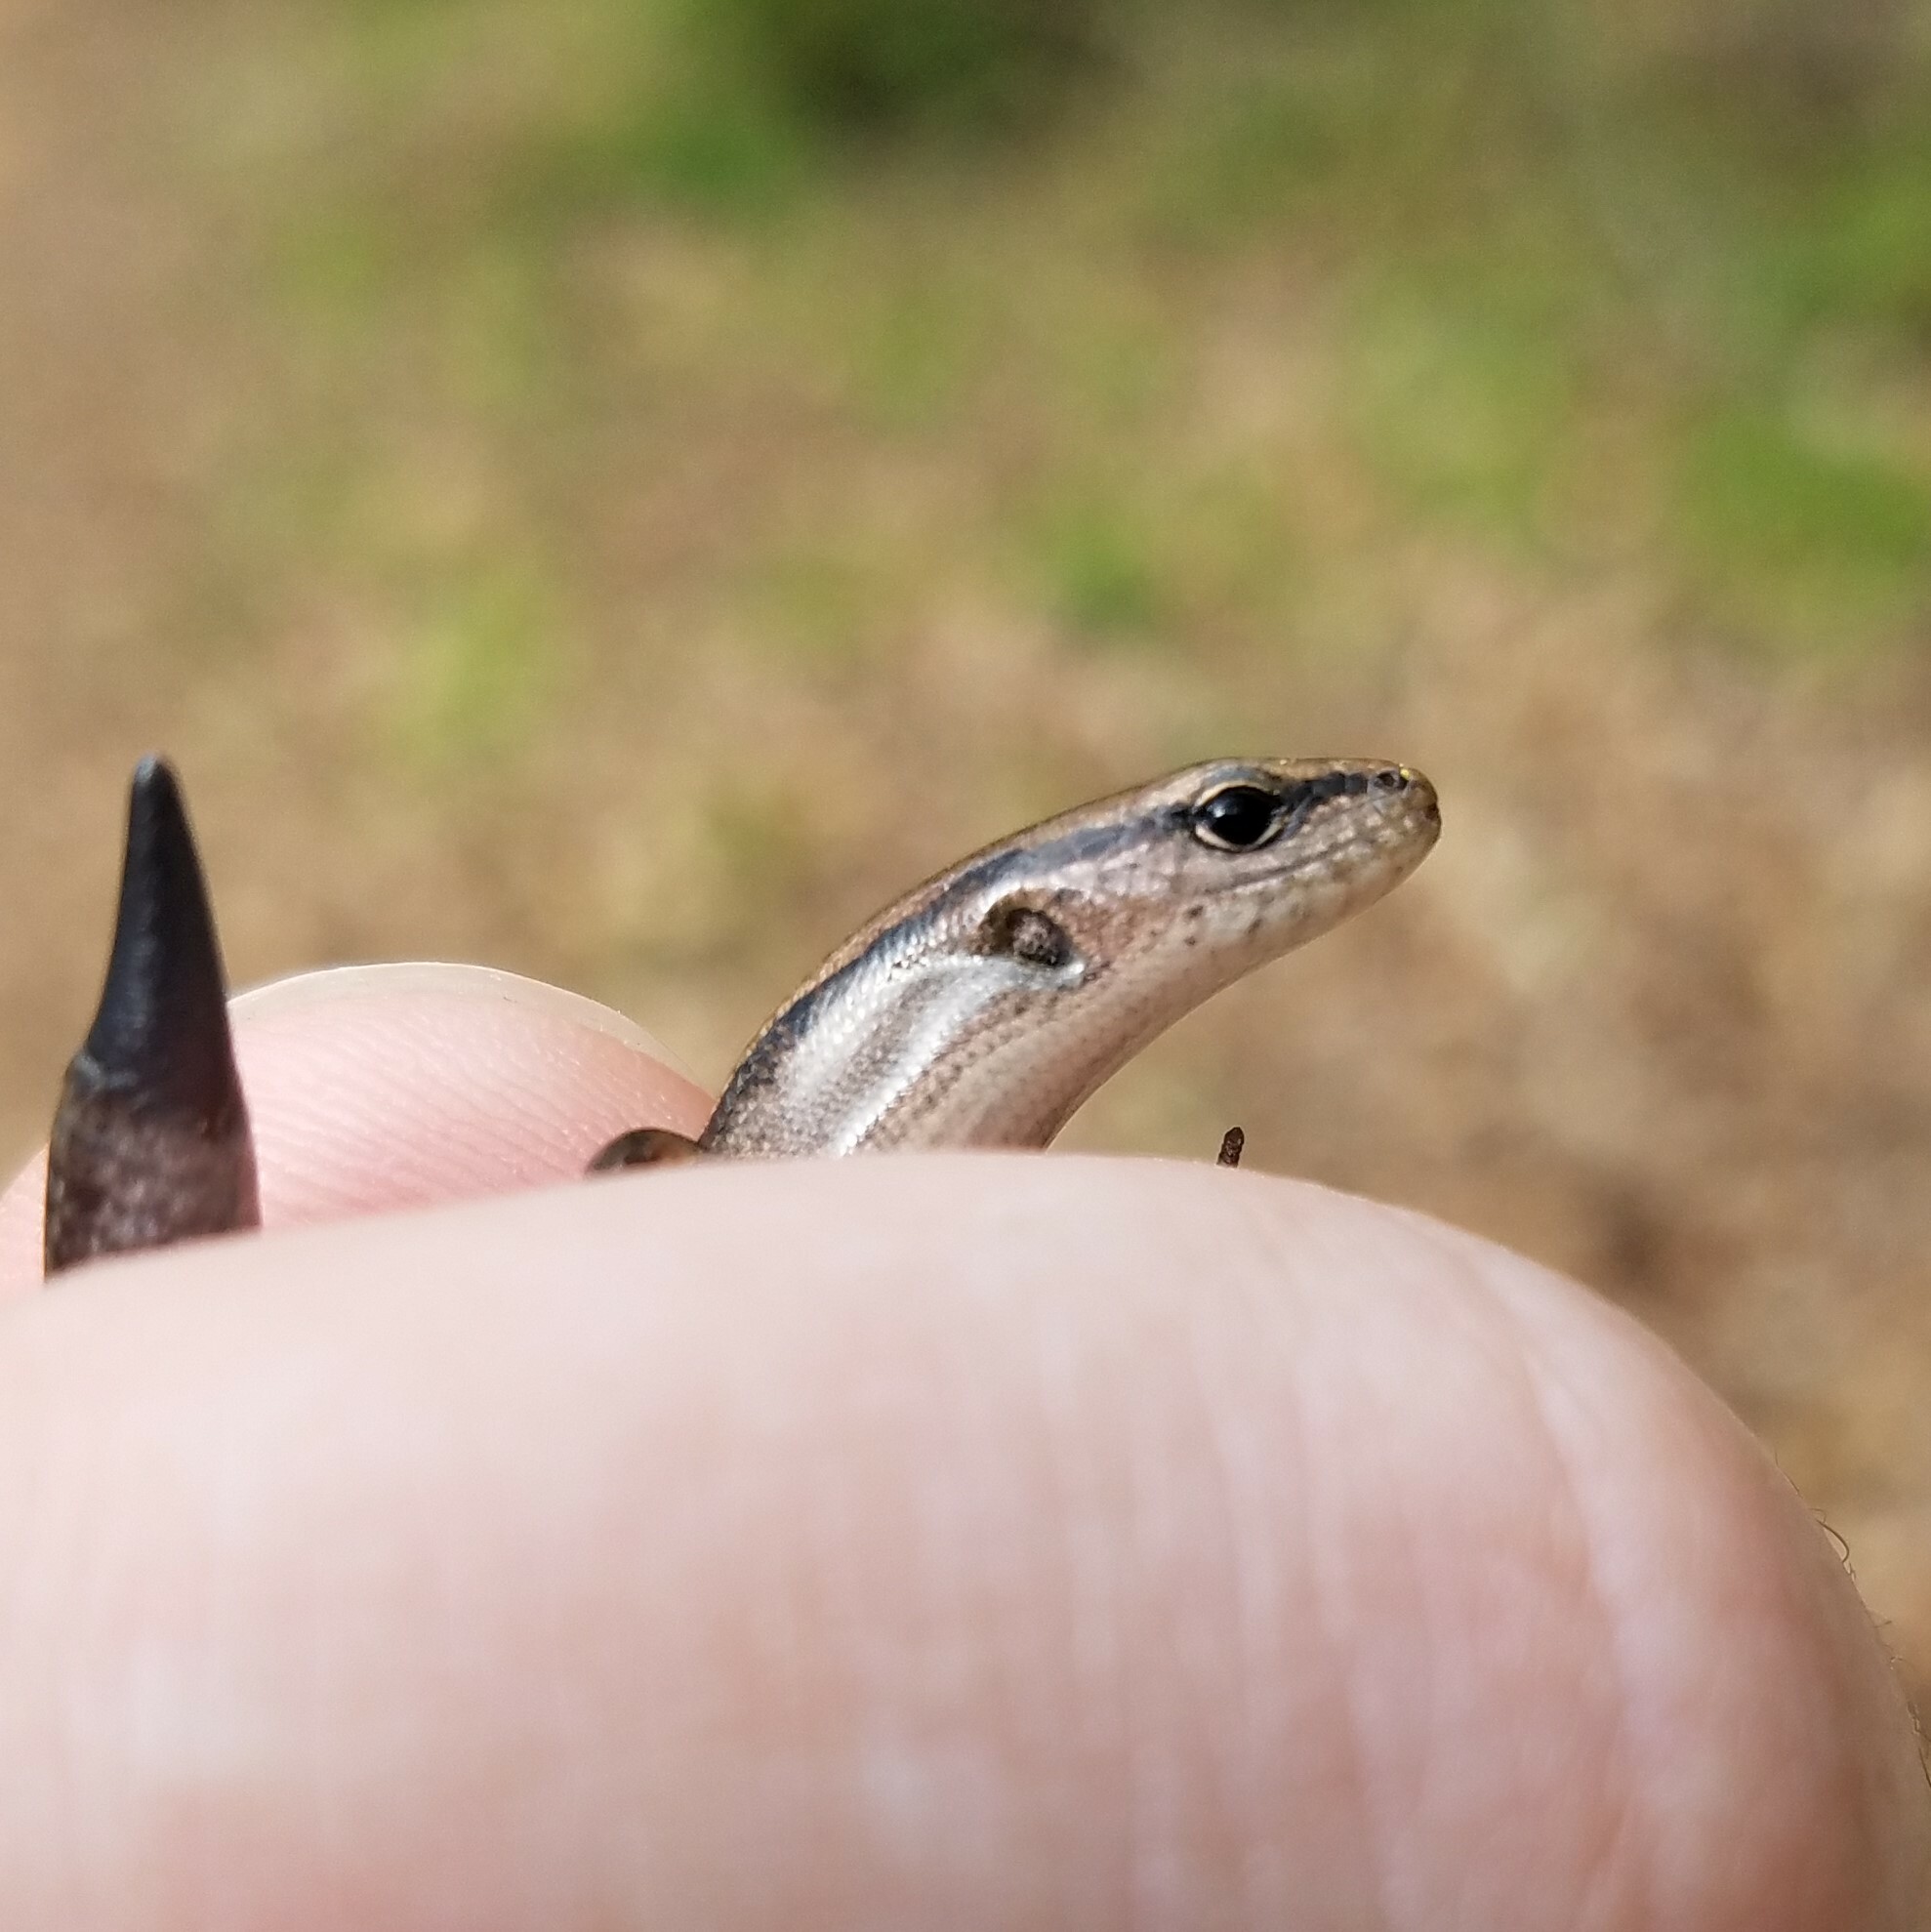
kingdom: Animalia
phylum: Chordata
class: Squamata
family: Scincidae
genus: Scincella
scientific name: Scincella lateralis
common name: Ground skink
